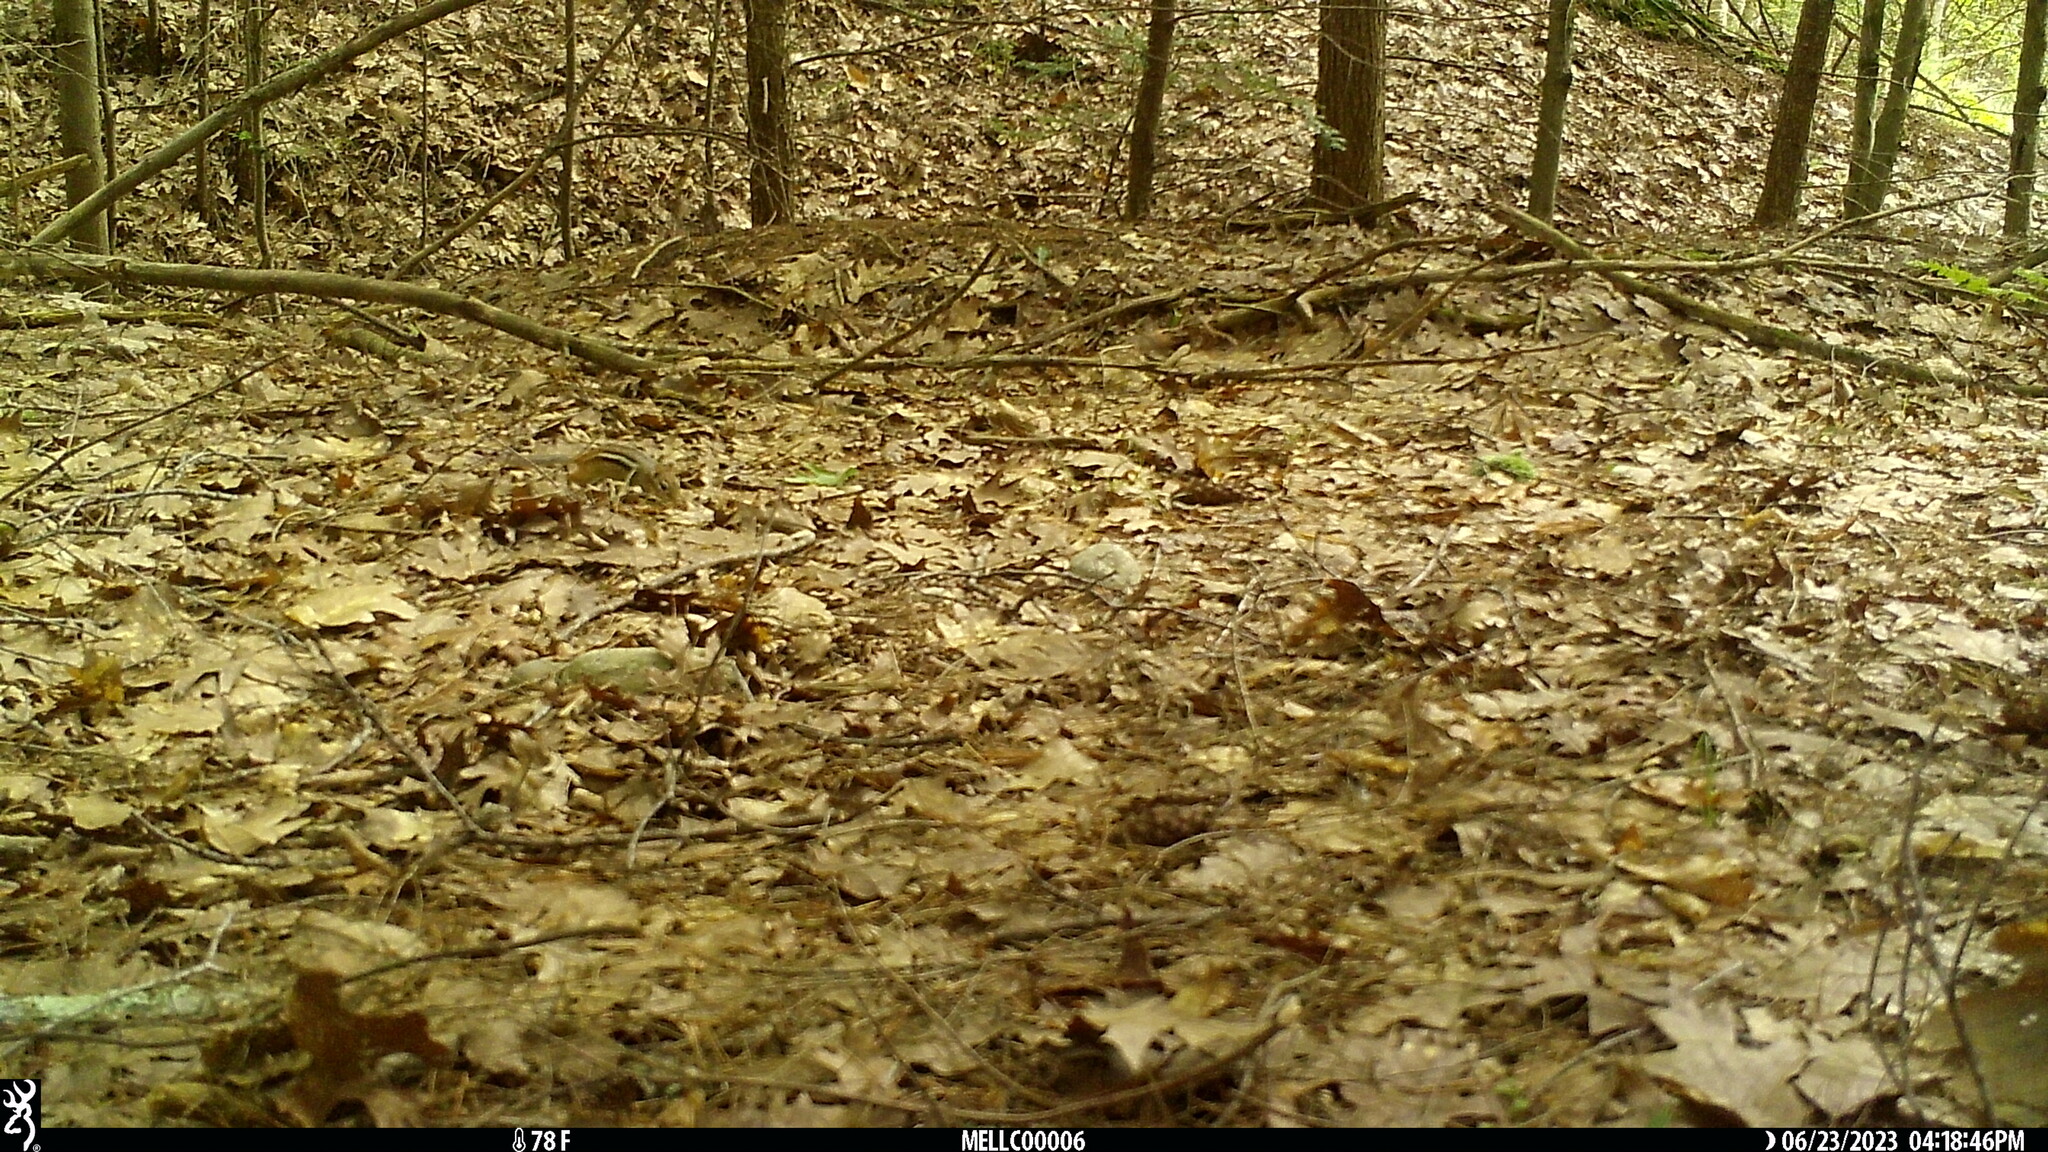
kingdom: Animalia
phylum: Chordata
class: Mammalia
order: Rodentia
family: Sciuridae
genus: Tamias
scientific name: Tamias striatus
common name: Eastern chipmunk
